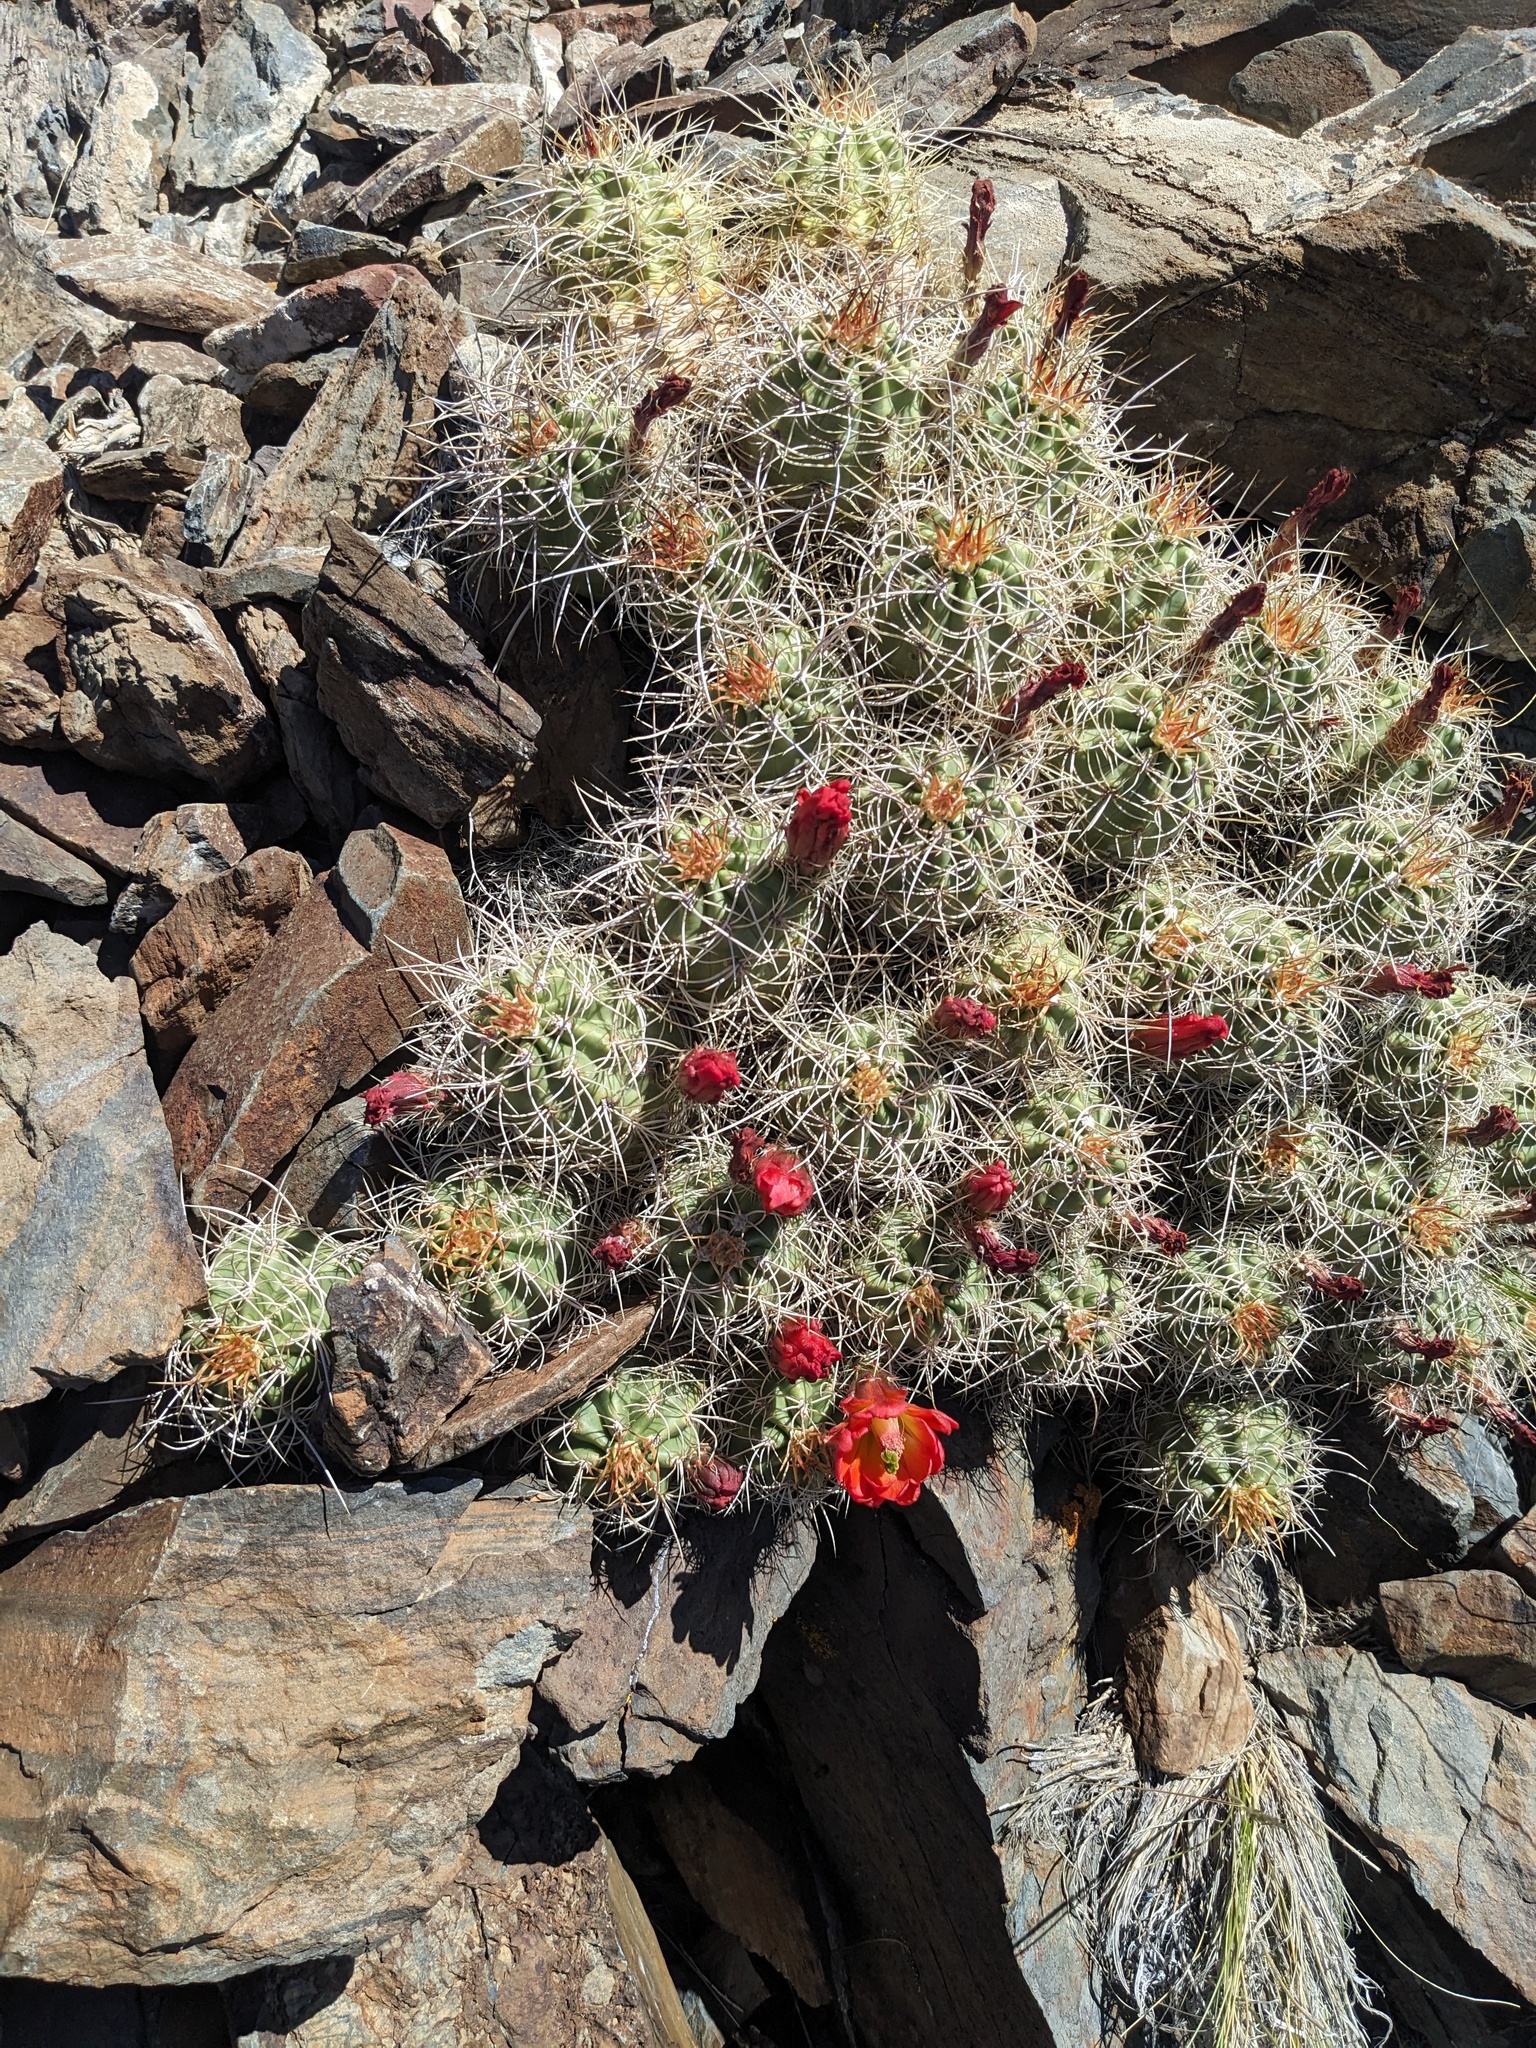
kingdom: Plantae
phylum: Tracheophyta
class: Magnoliopsida
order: Caryophyllales
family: Cactaceae
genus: Echinocereus
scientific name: Echinocereus triglochidiatus
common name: Claretcup hedgehog
